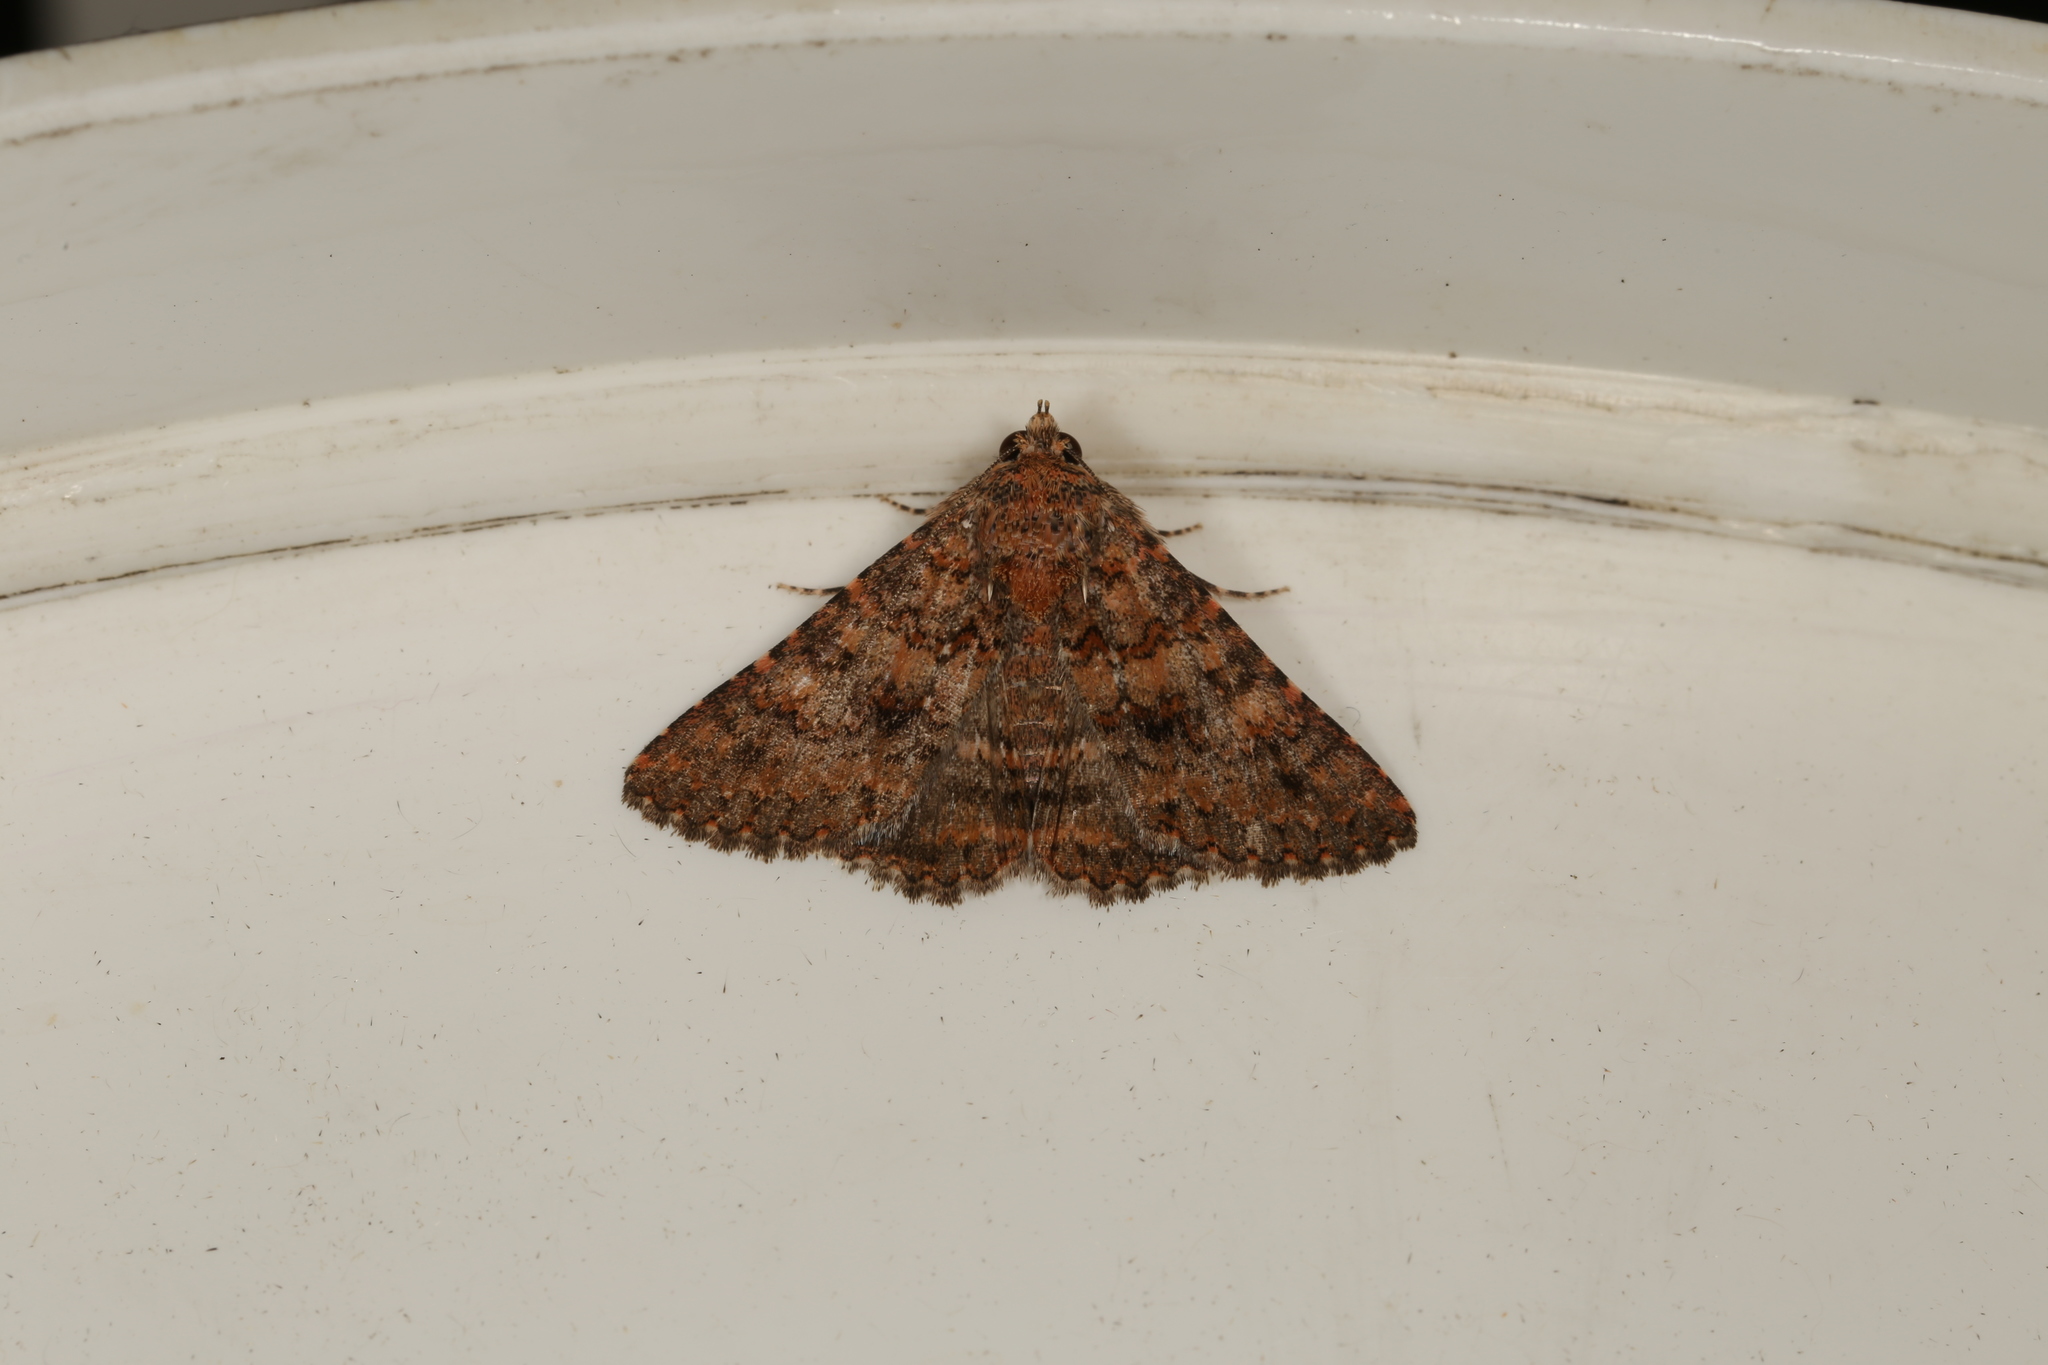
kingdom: Animalia
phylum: Arthropoda
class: Insecta
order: Lepidoptera
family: Erebidae
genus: Praxis
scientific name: Praxis marmarinopa
